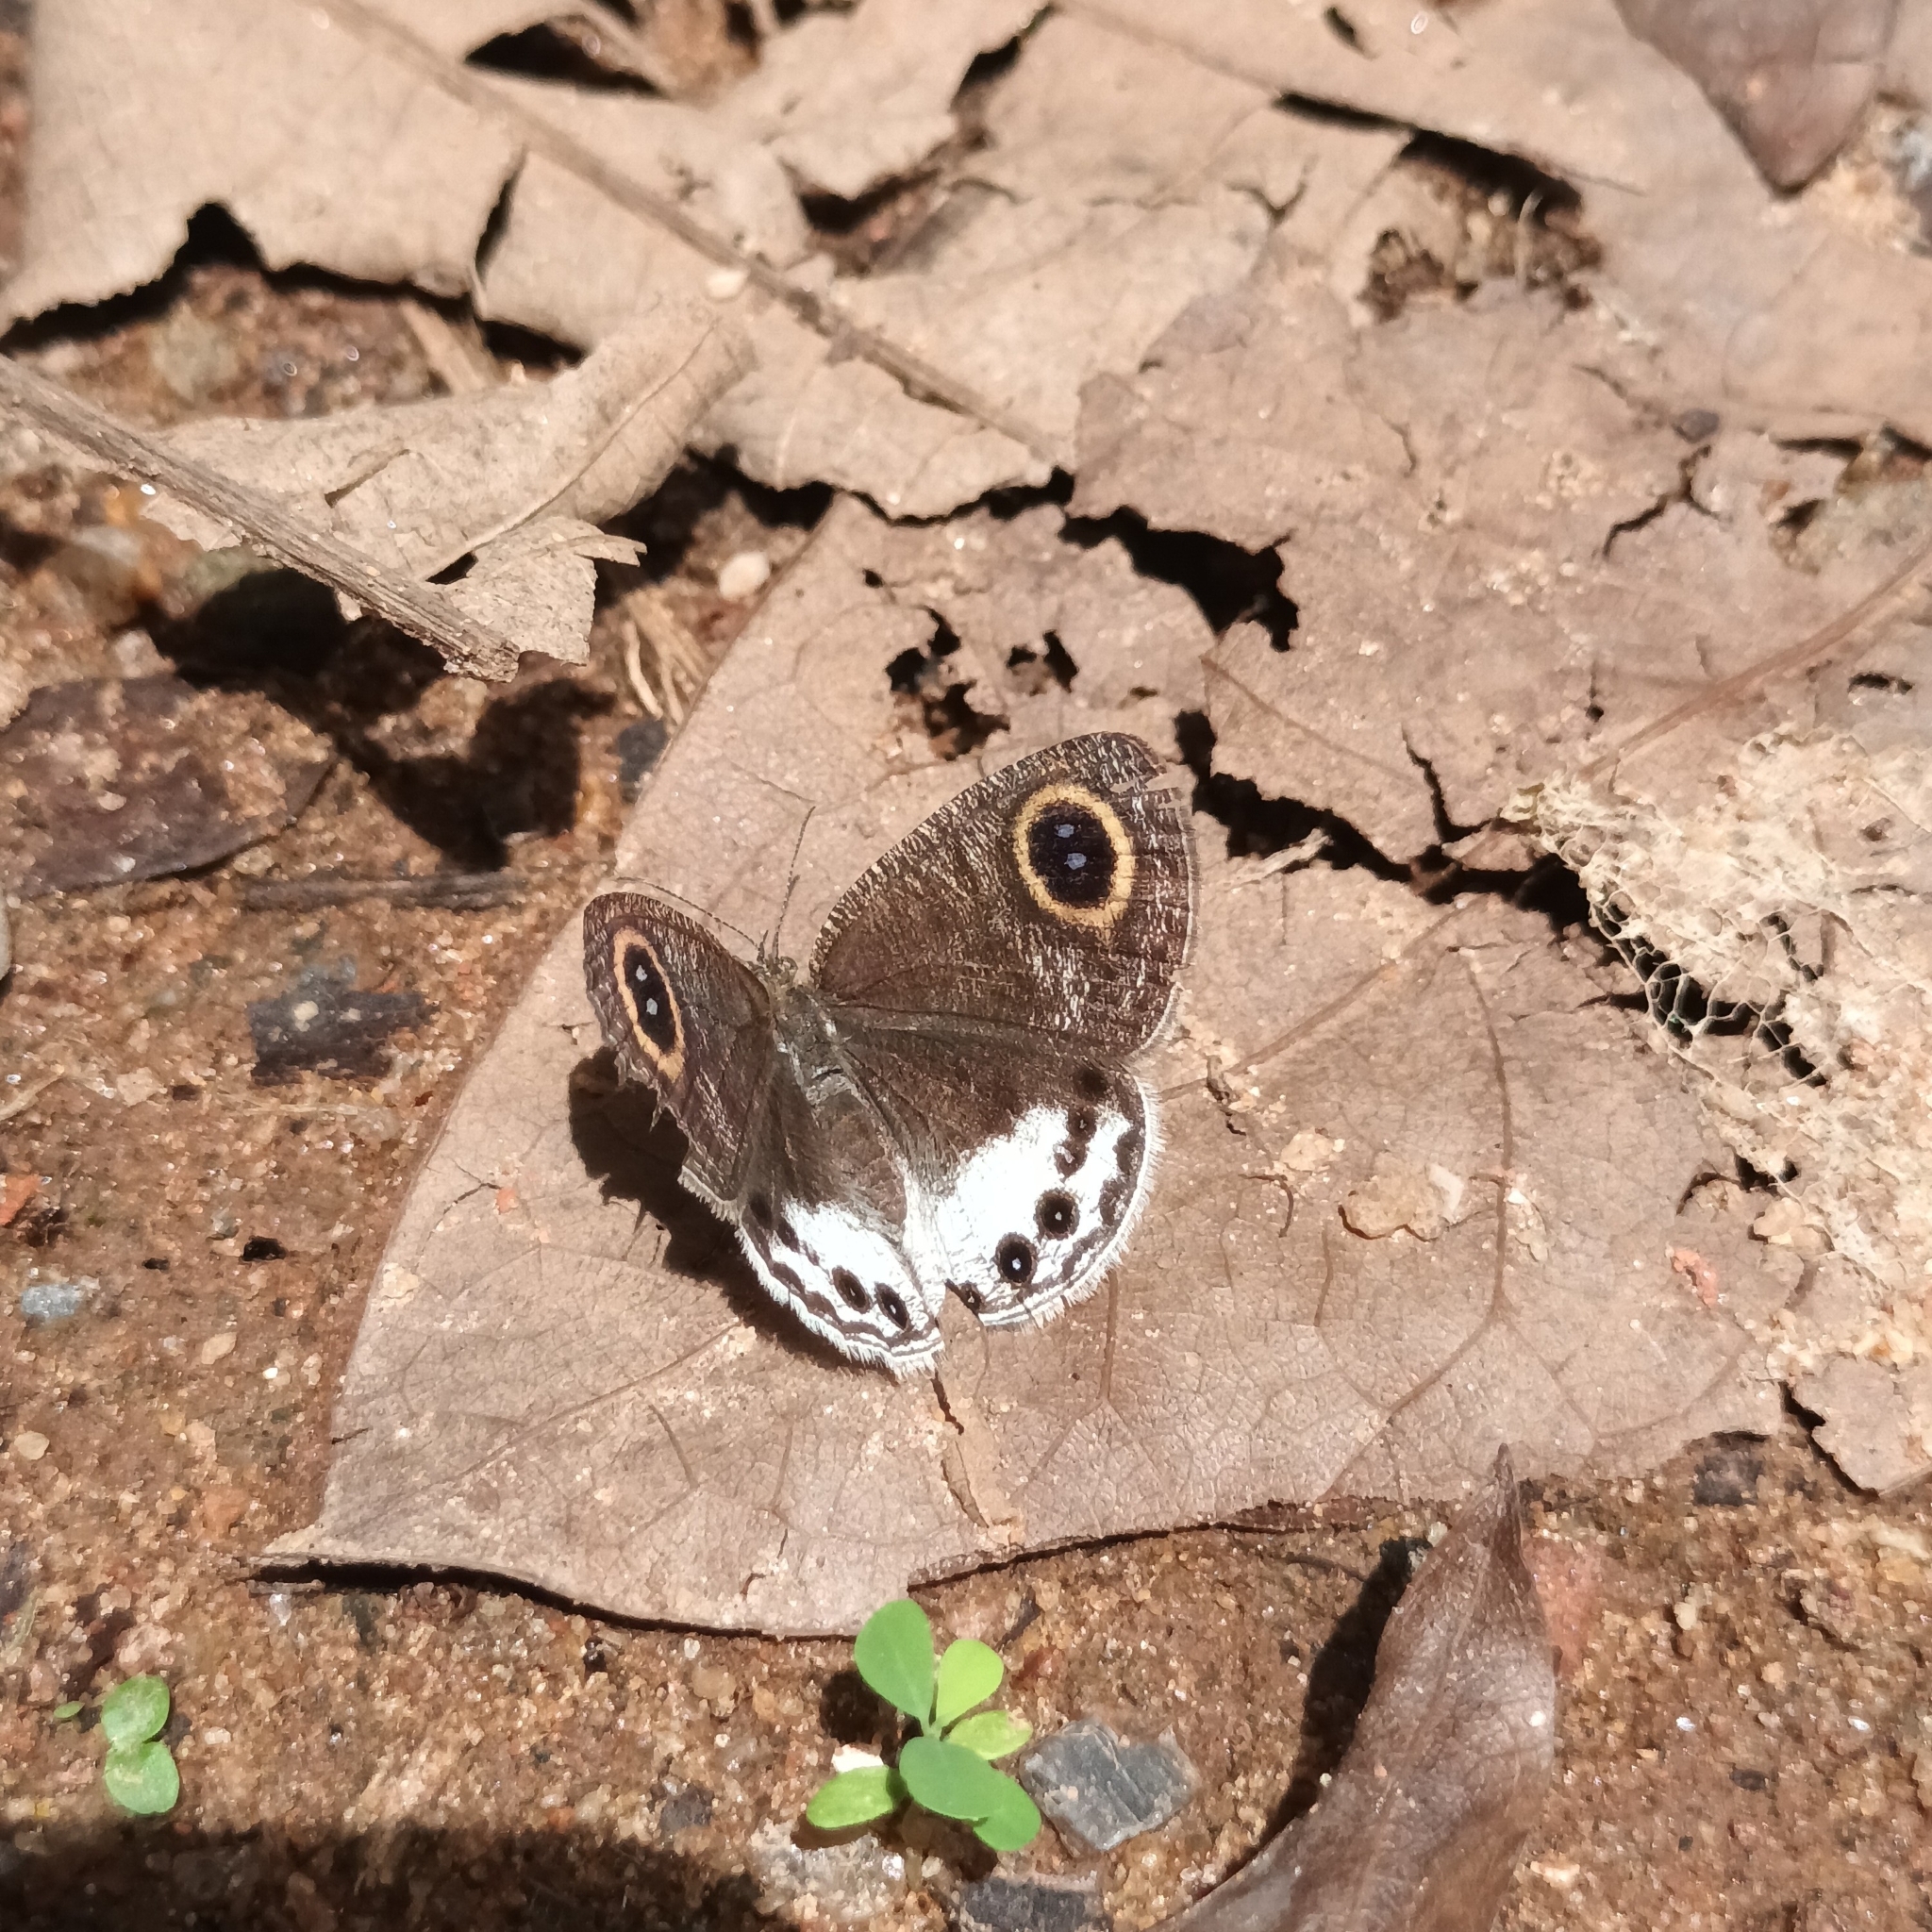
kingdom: Animalia
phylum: Arthropoda
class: Insecta
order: Lepidoptera
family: Nymphalidae
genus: Ypthima
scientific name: Ypthima ceylonica
